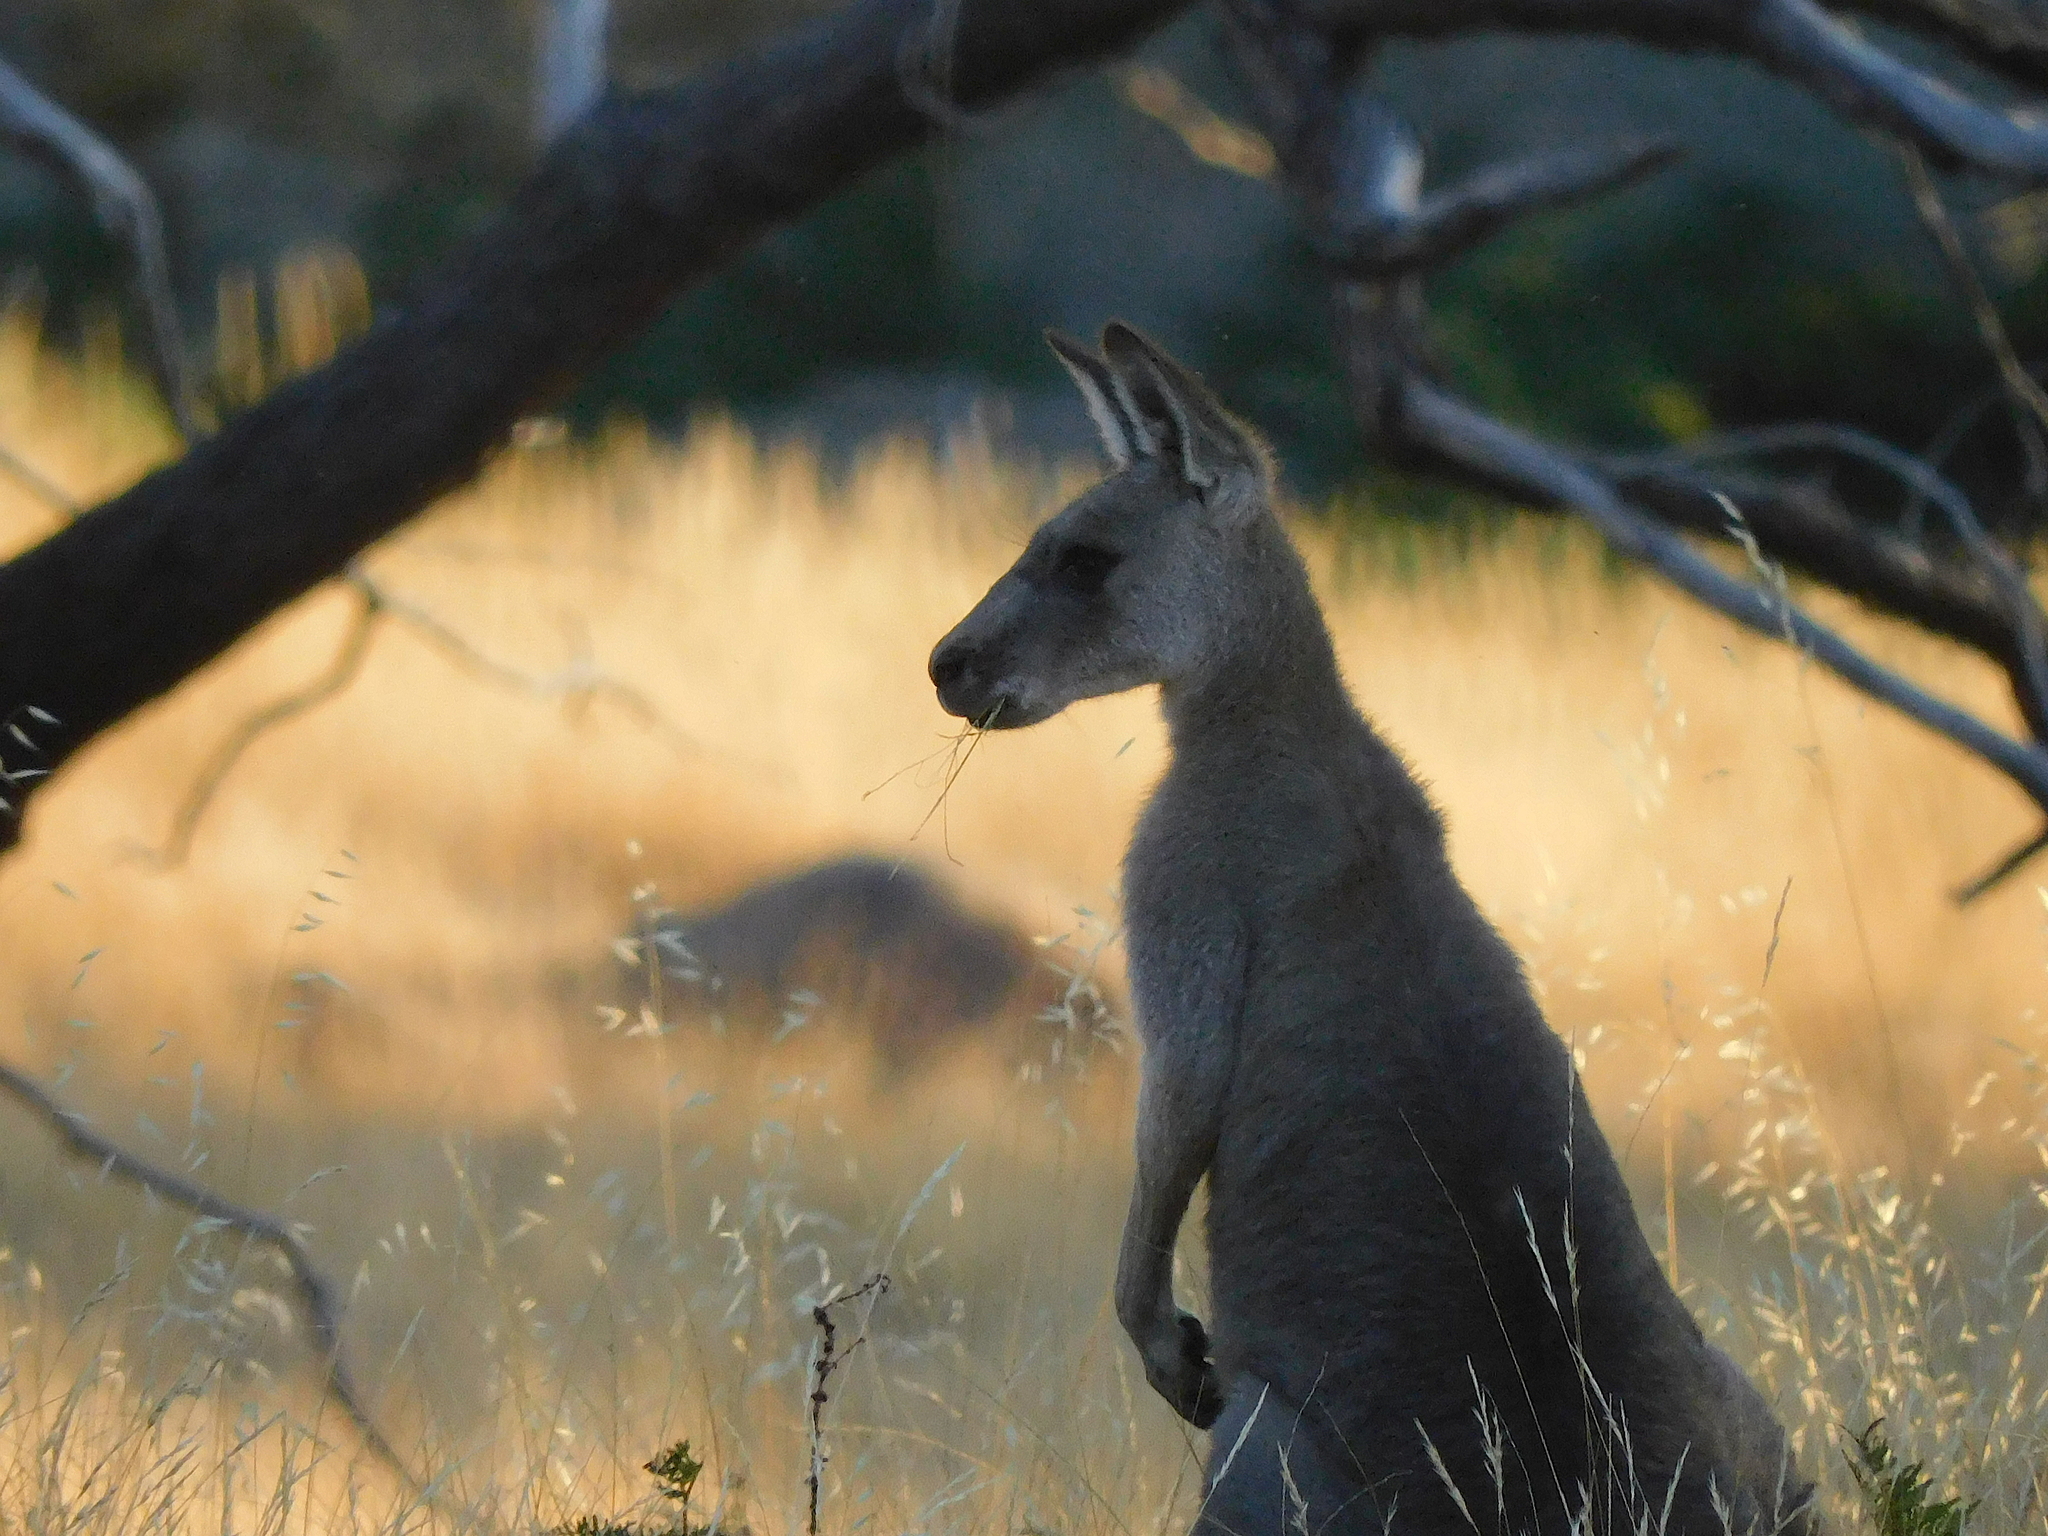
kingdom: Animalia
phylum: Chordata
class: Mammalia
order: Diprotodontia
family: Macropodidae
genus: Macropus
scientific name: Macropus giganteus
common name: Eastern grey kangaroo
